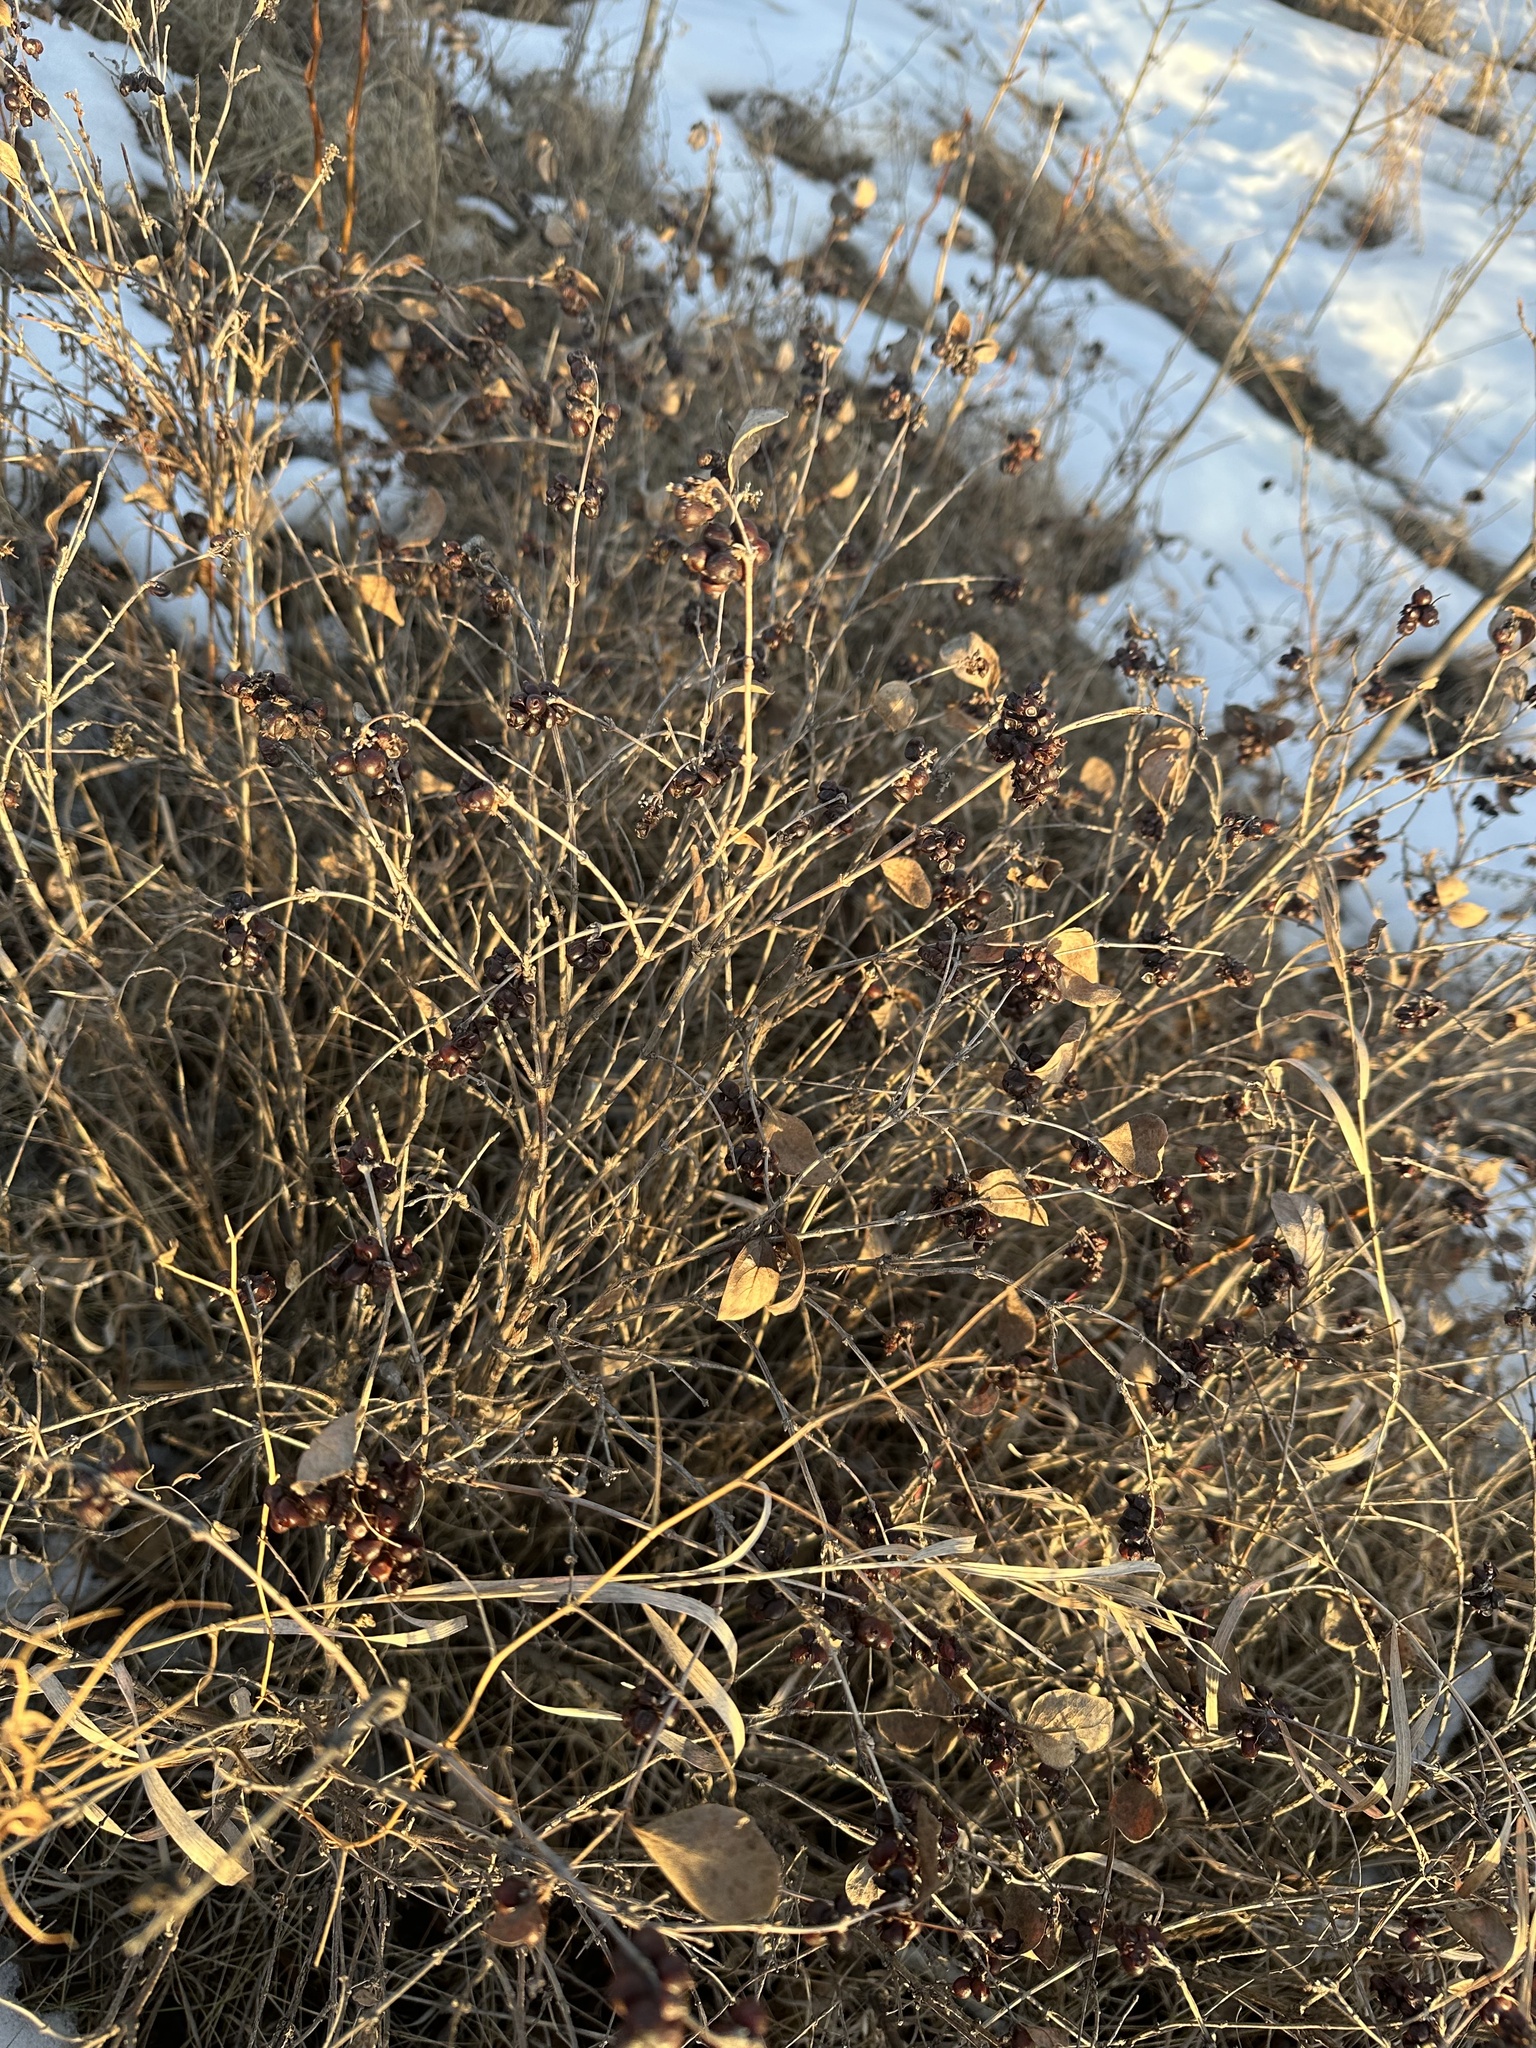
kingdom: Plantae
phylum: Tracheophyta
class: Magnoliopsida
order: Dipsacales
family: Caprifoliaceae
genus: Symphoricarpos
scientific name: Symphoricarpos occidentalis
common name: Wolfberry
